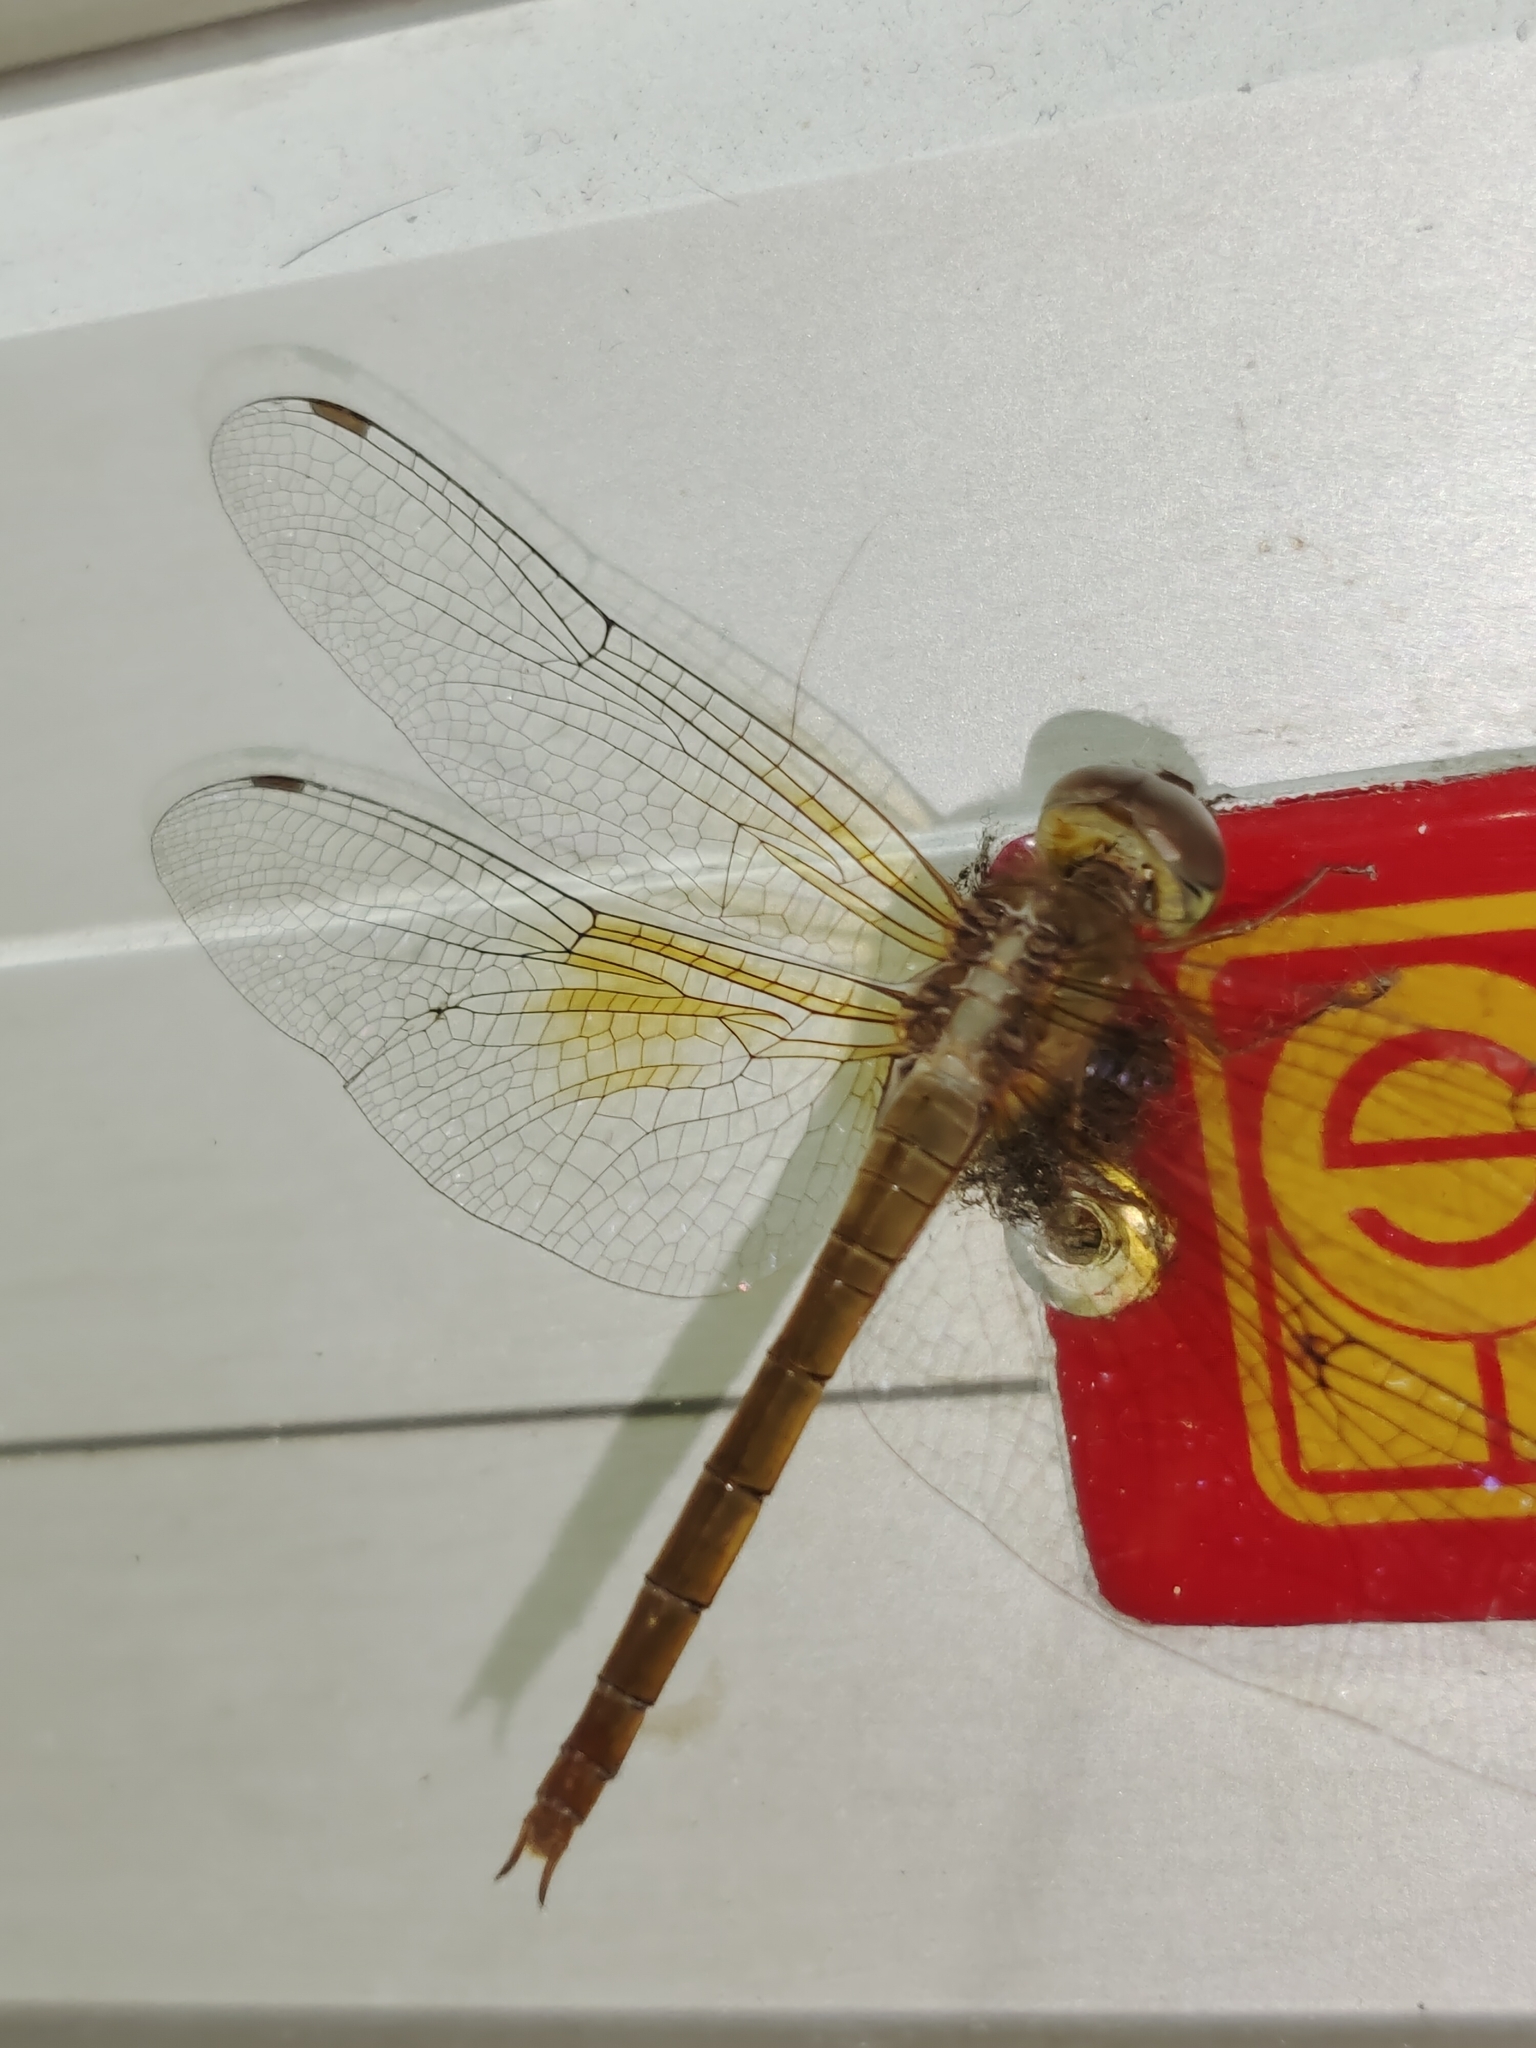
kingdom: Animalia
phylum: Arthropoda
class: Insecta
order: Odonata
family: Libellulidae
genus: Tholymis
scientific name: Tholymis tillarga
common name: Coral-tailed cloud wing
